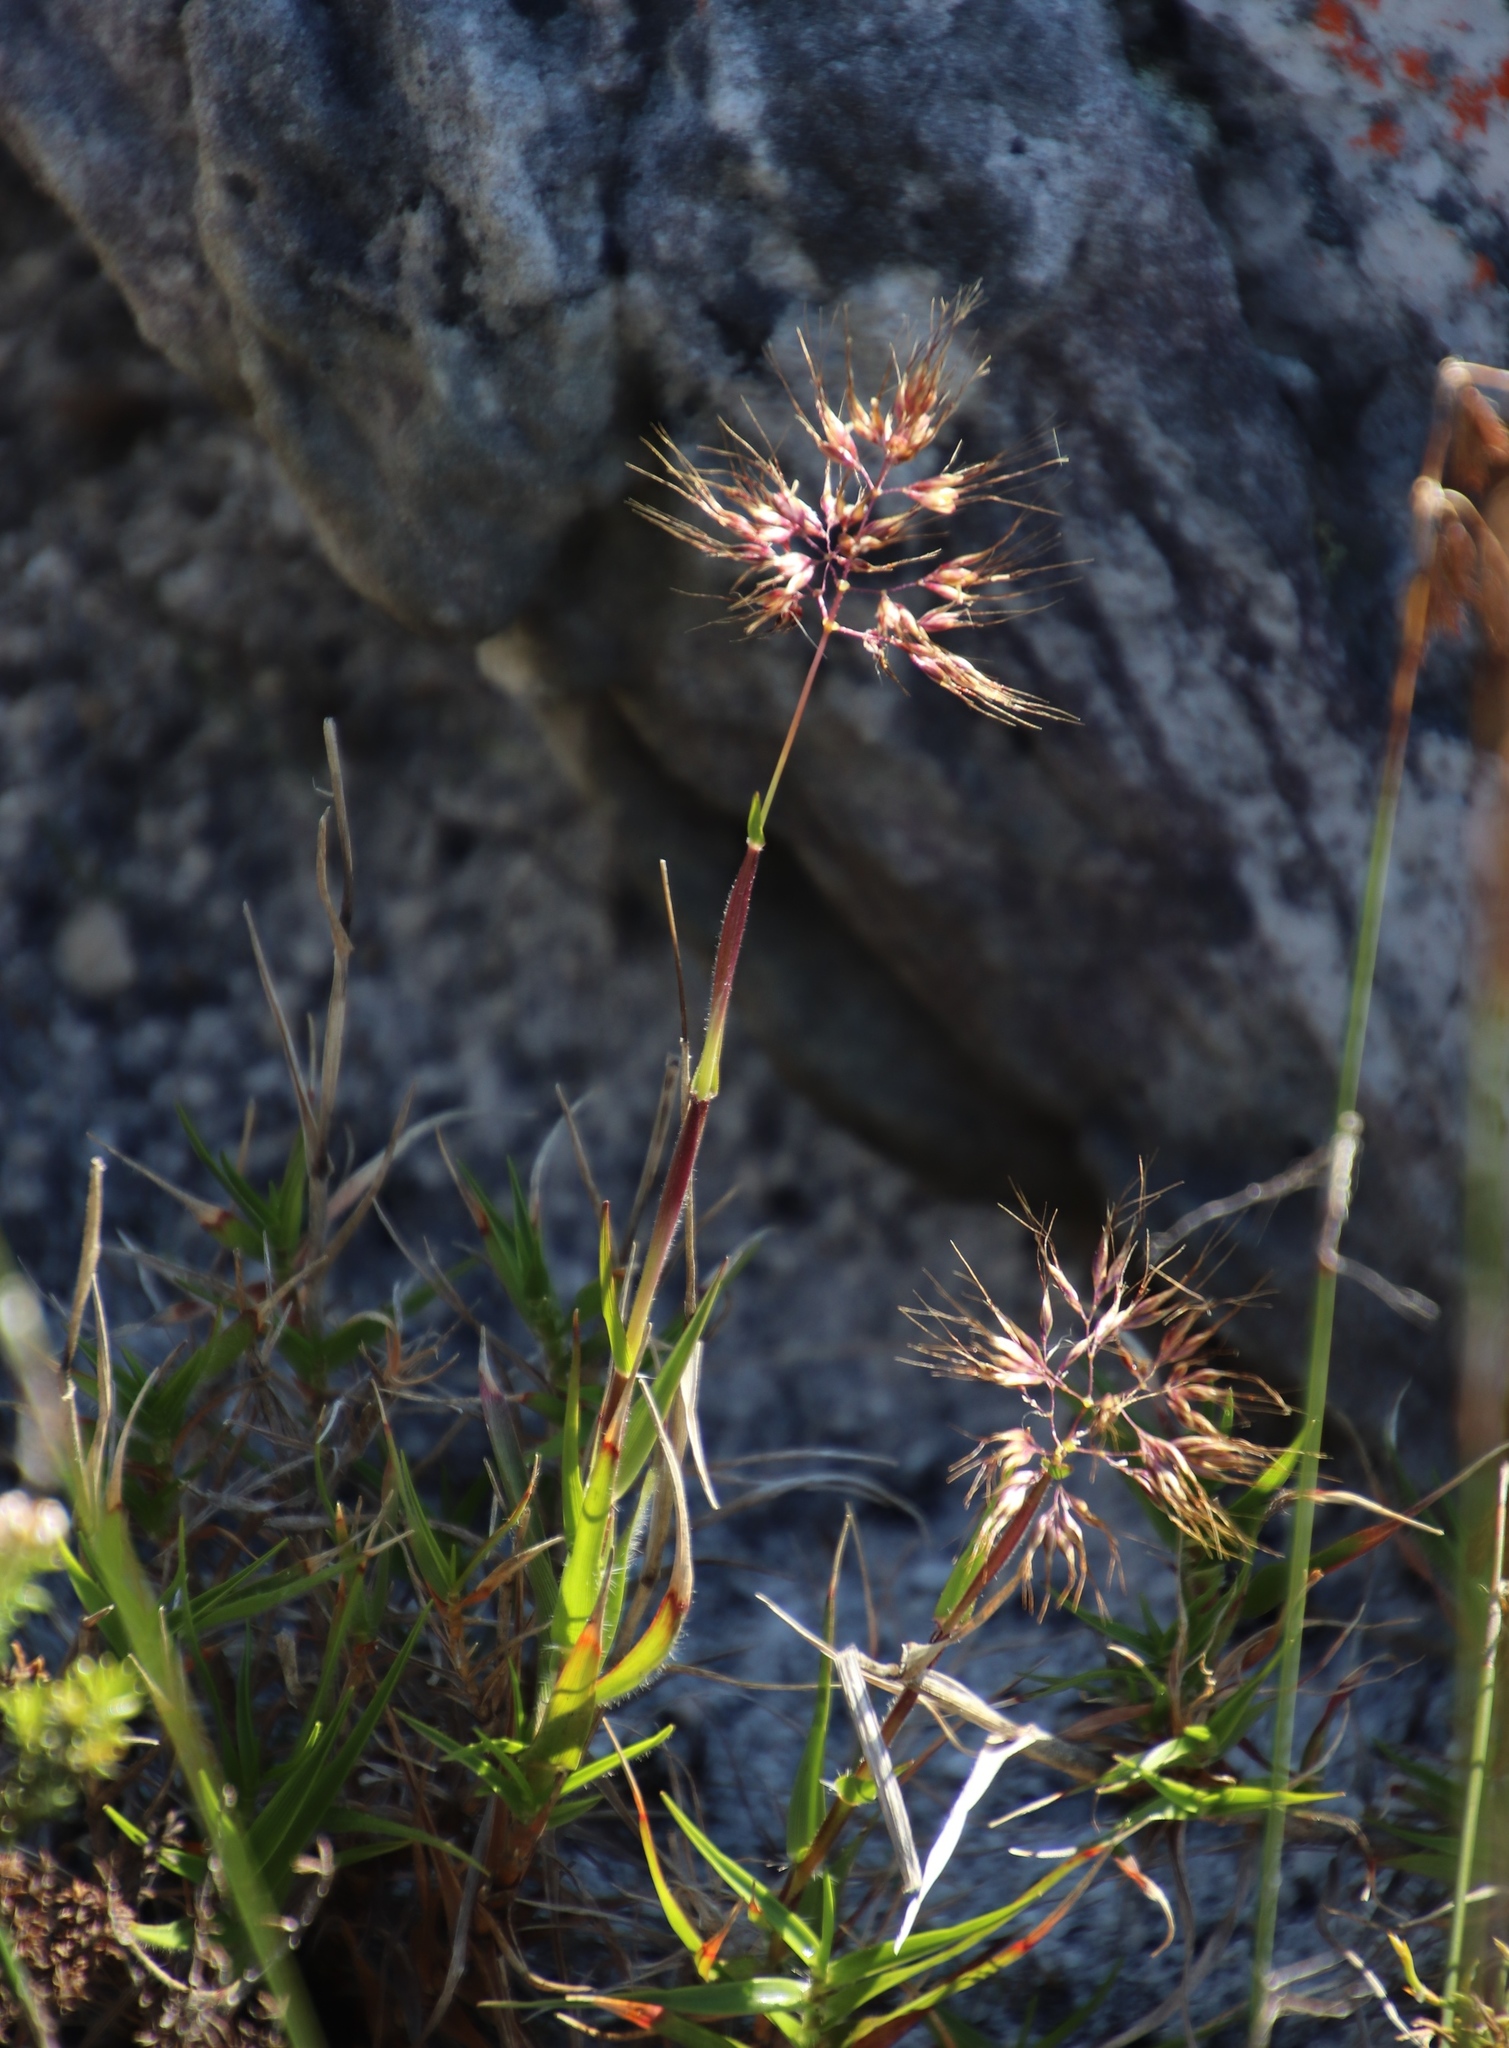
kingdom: Plantae
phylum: Tracheophyta
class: Liliopsida
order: Poales
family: Poaceae
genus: Pentameris
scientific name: Pentameris barbata
